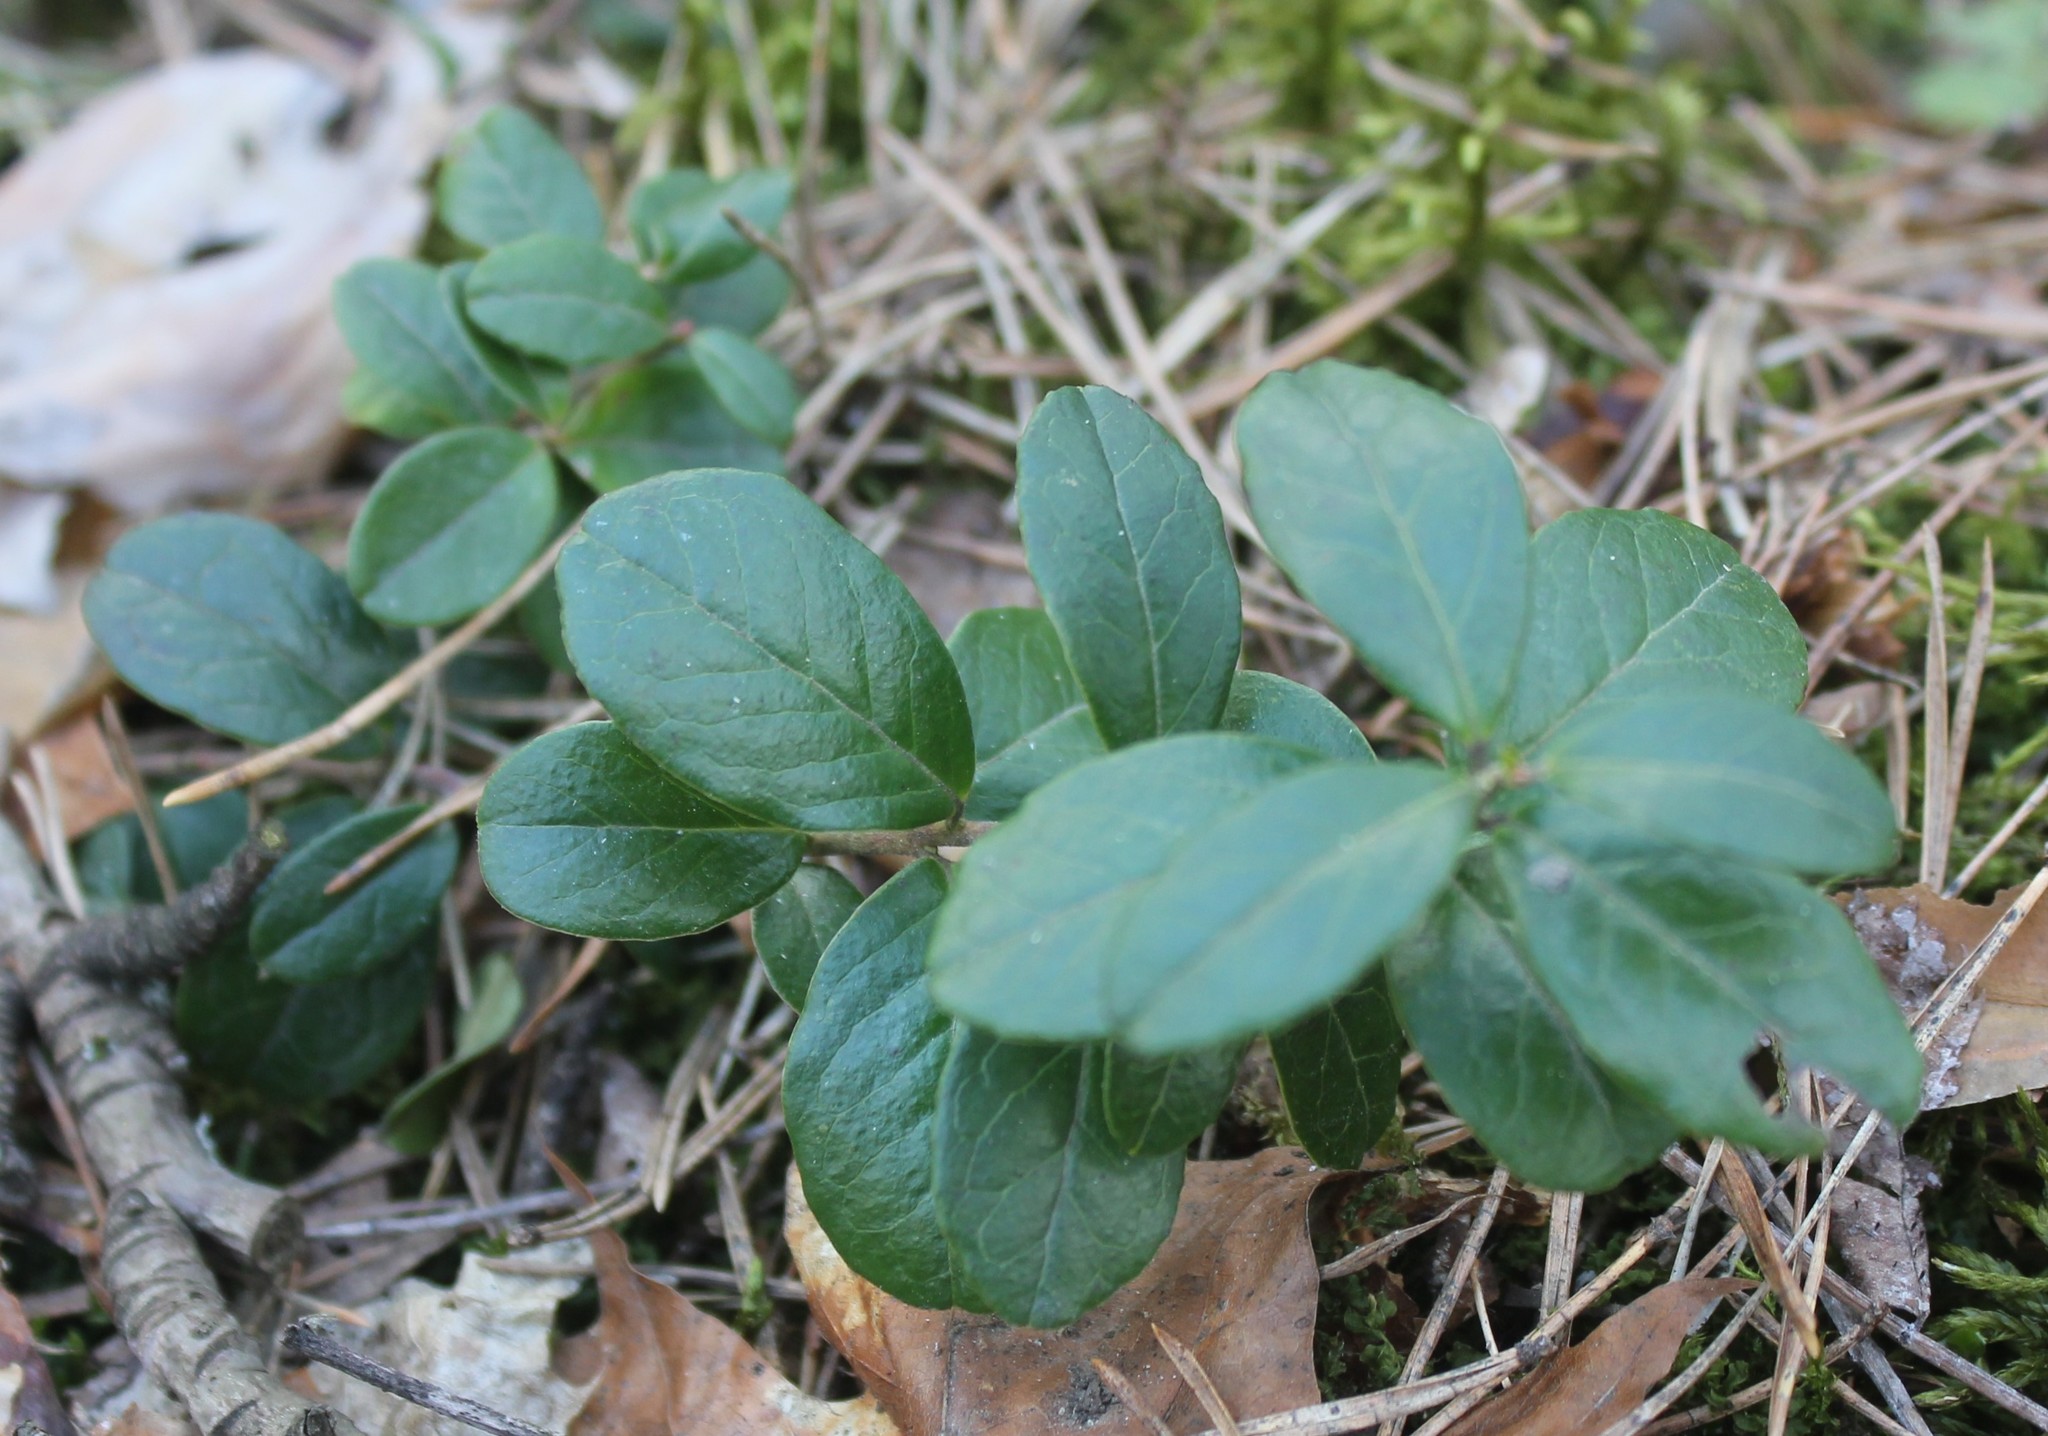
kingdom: Plantae
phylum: Tracheophyta
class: Magnoliopsida
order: Ericales
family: Ericaceae
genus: Vaccinium
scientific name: Vaccinium vitis-idaea
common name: Cowberry
